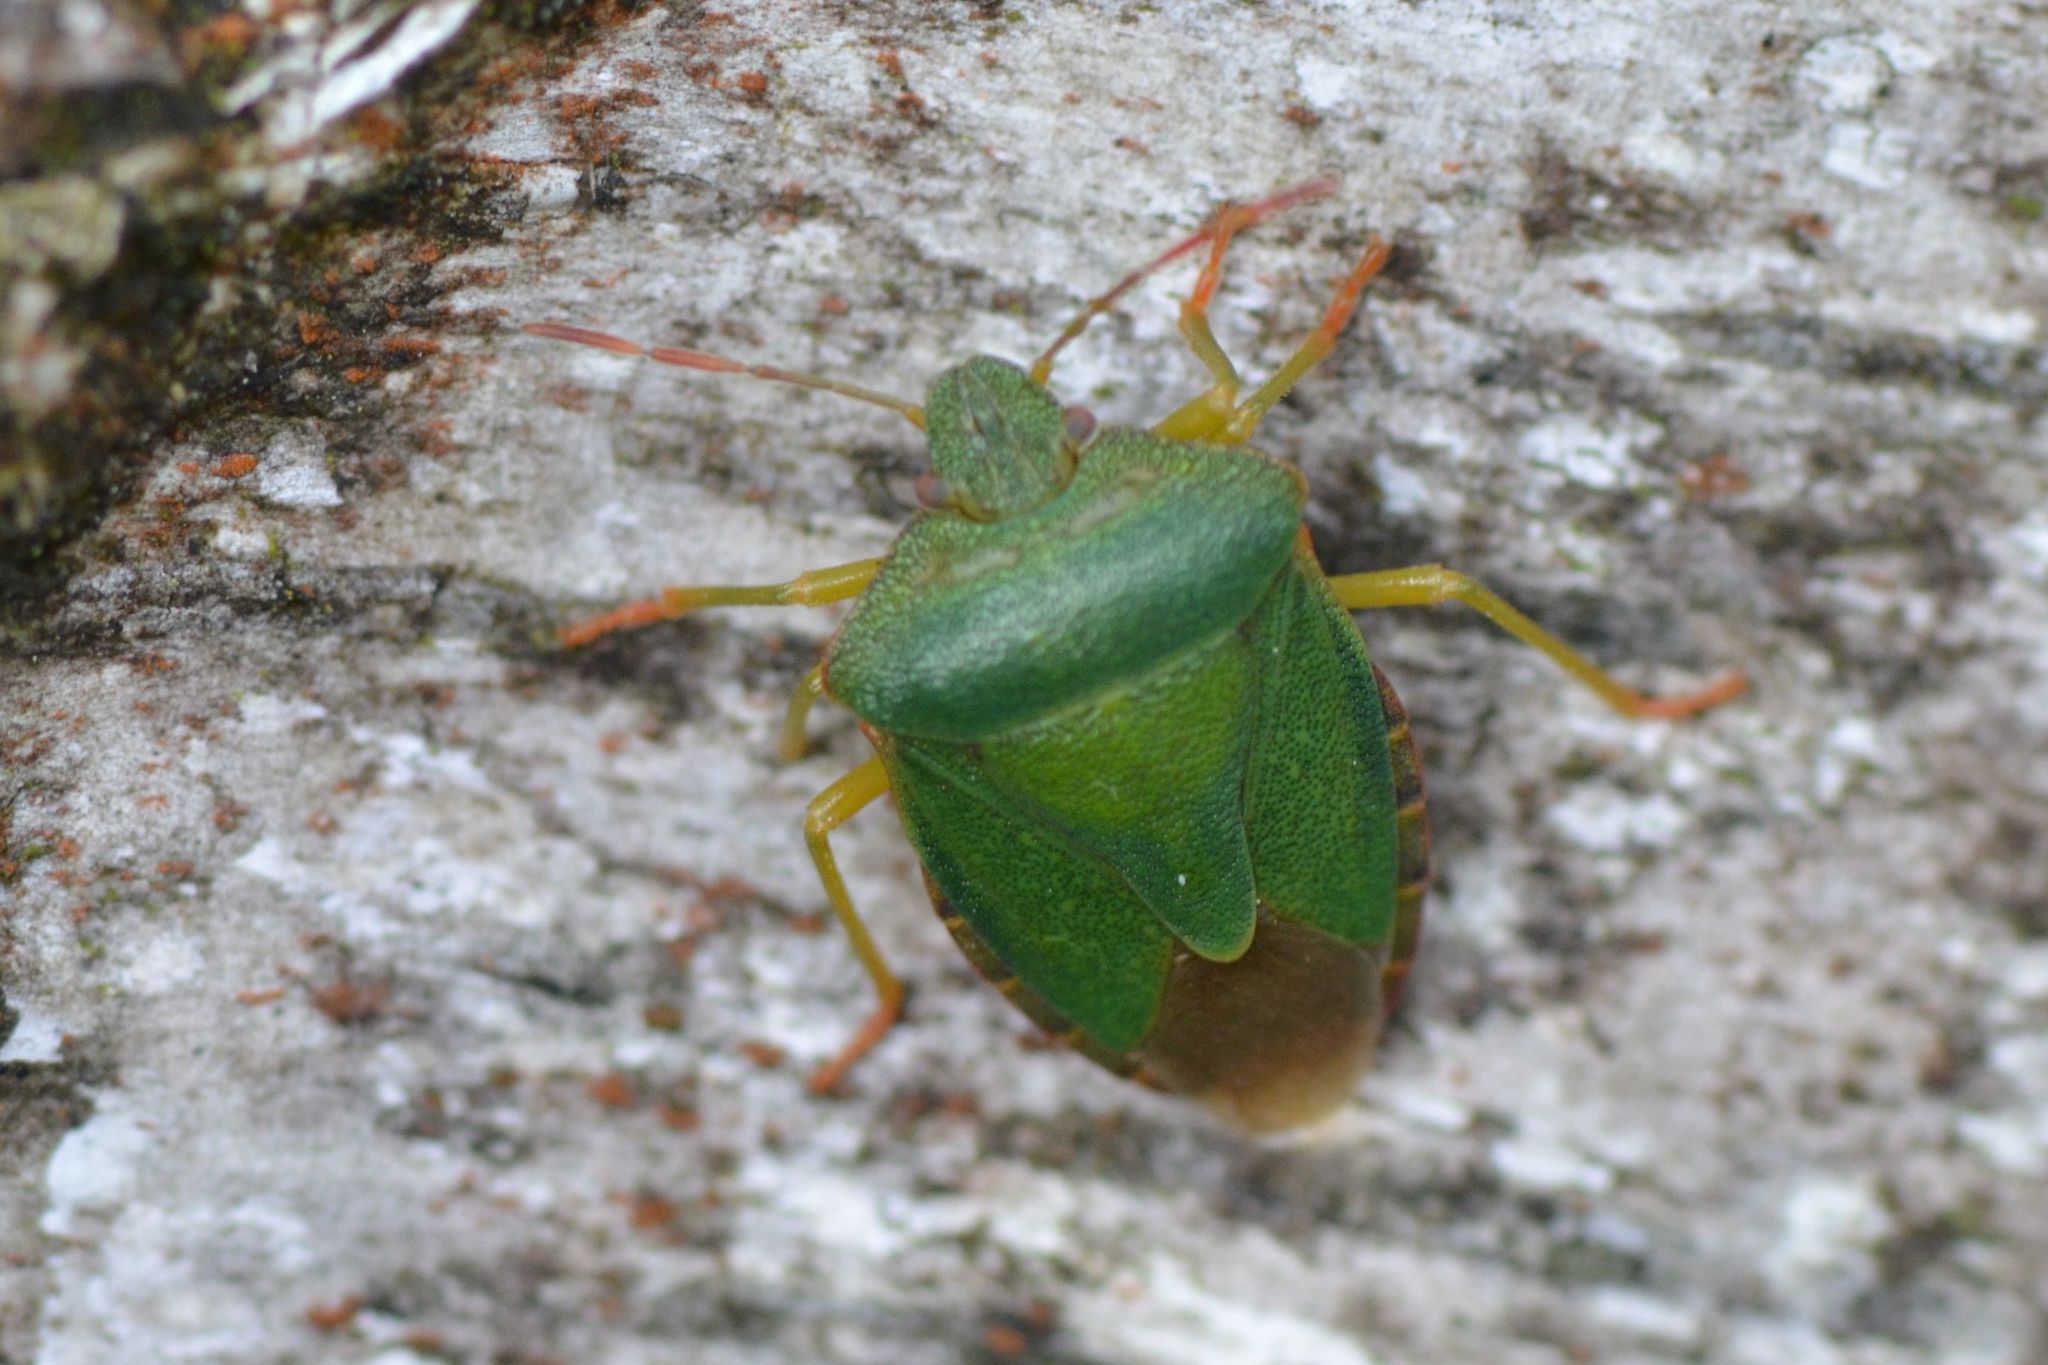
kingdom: Animalia
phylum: Arthropoda
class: Insecta
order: Hemiptera
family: Pentatomidae
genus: Palomena
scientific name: Palomena prasina
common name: Green shieldbug
